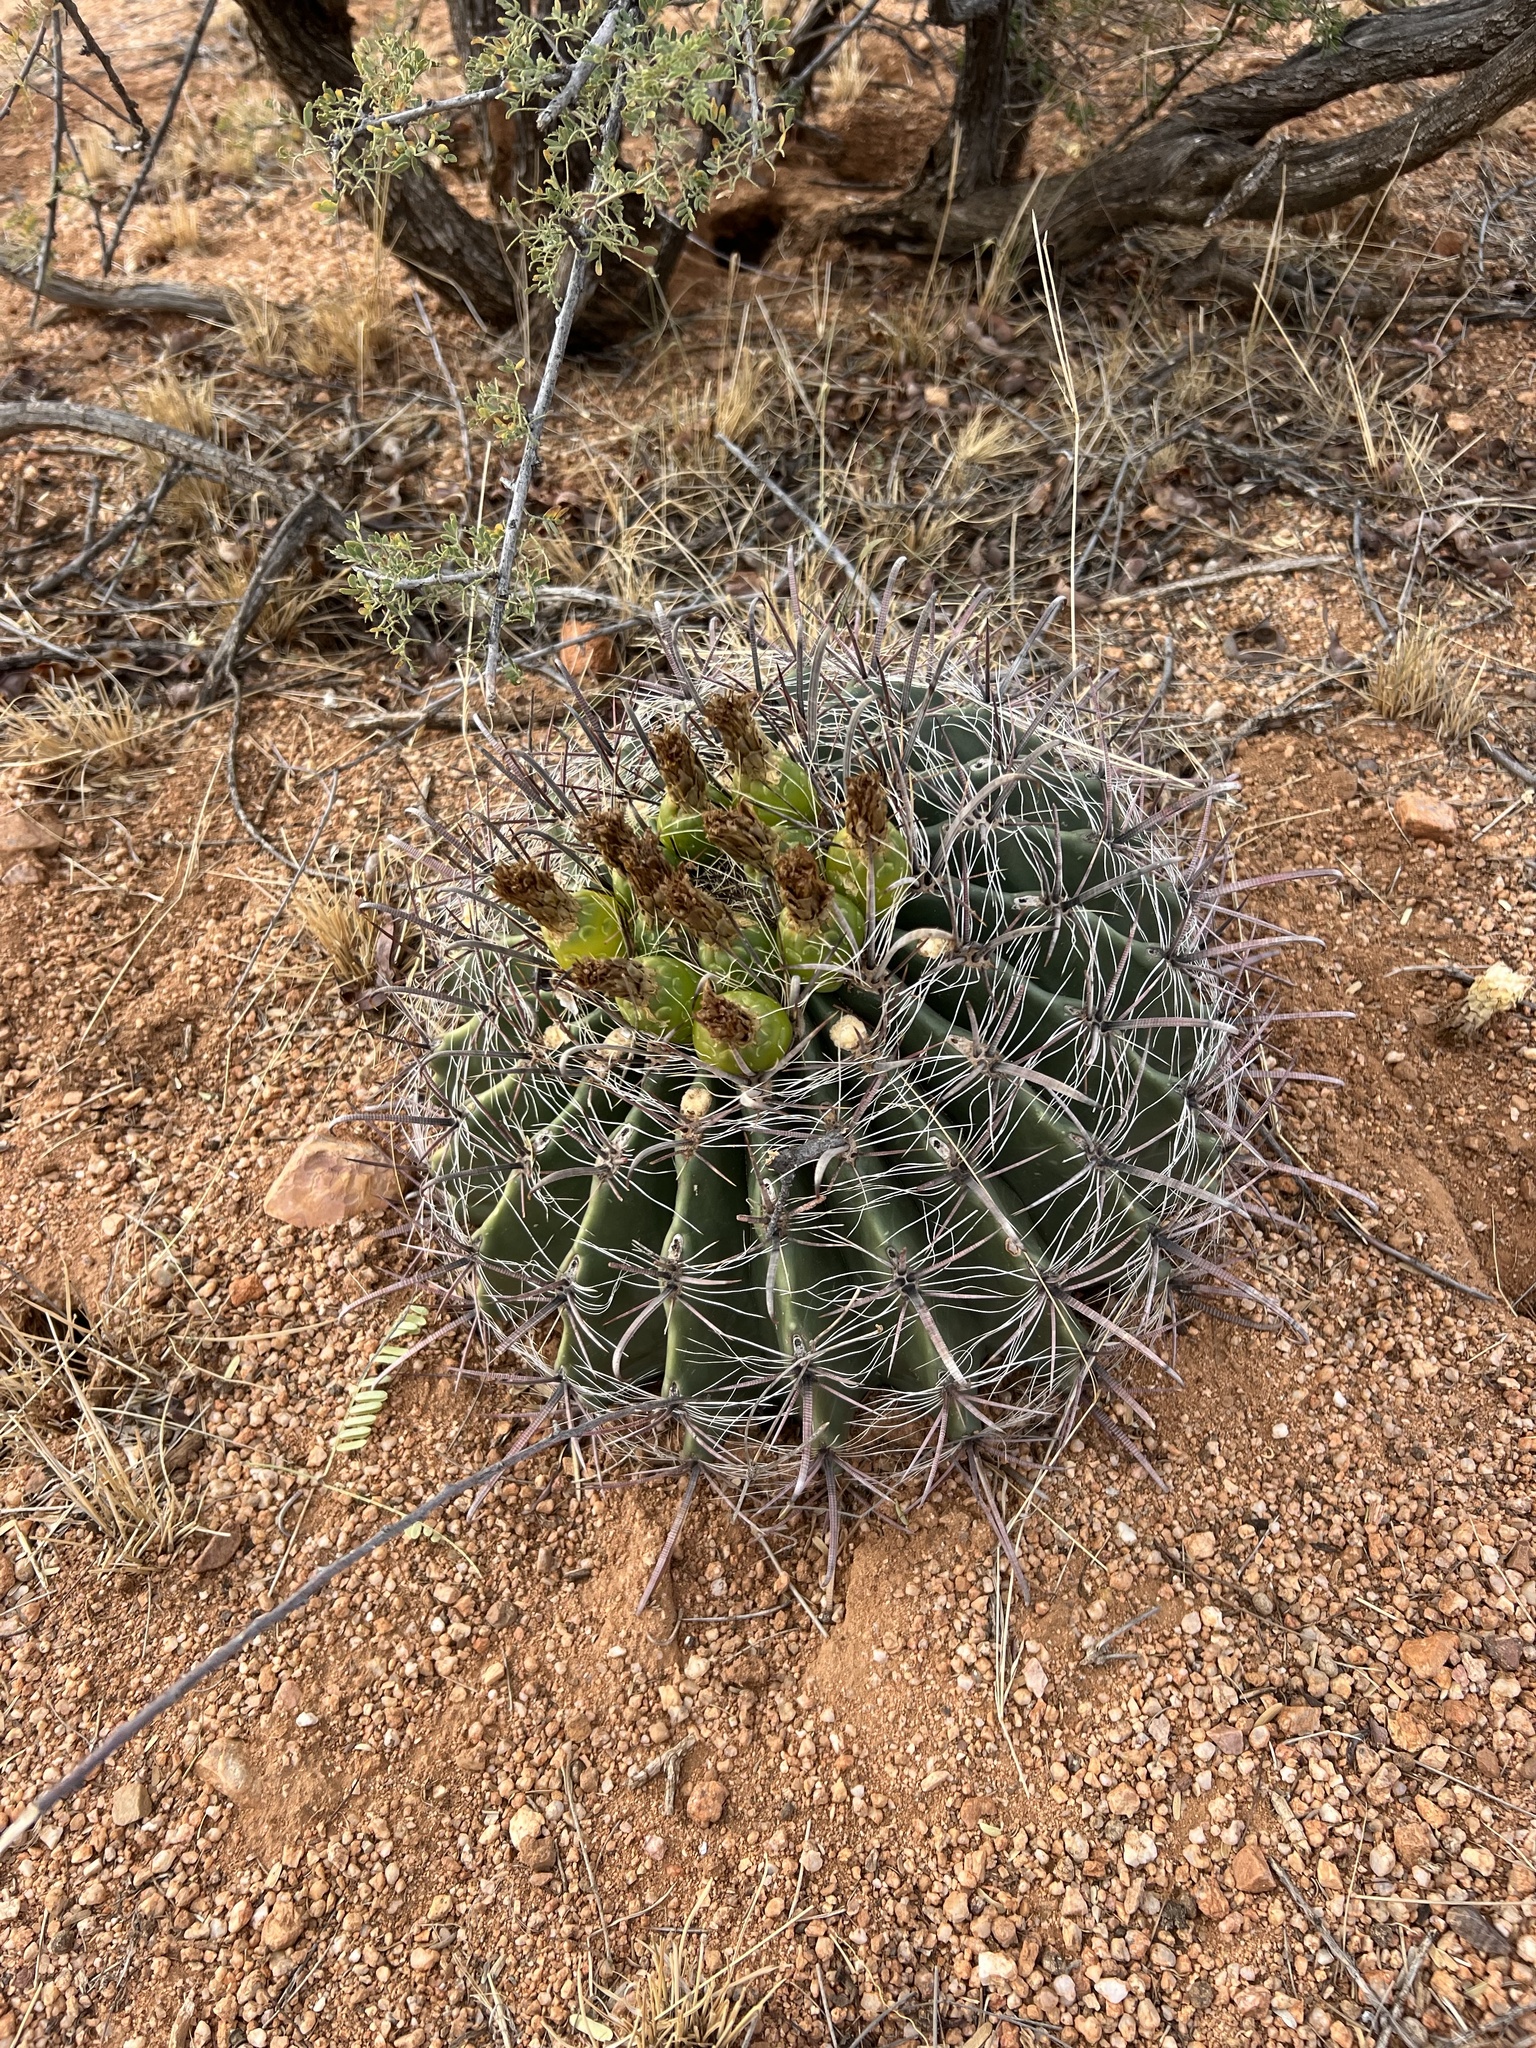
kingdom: Plantae
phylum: Tracheophyta
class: Magnoliopsida
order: Caryophyllales
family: Cactaceae
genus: Ferocactus
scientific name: Ferocactus wislizeni
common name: Candy barrel cactus
